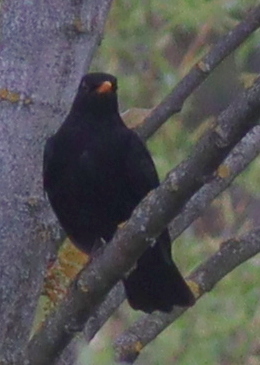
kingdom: Animalia
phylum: Chordata
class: Aves
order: Passeriformes
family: Turdidae
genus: Turdus
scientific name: Turdus merula
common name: Common blackbird
